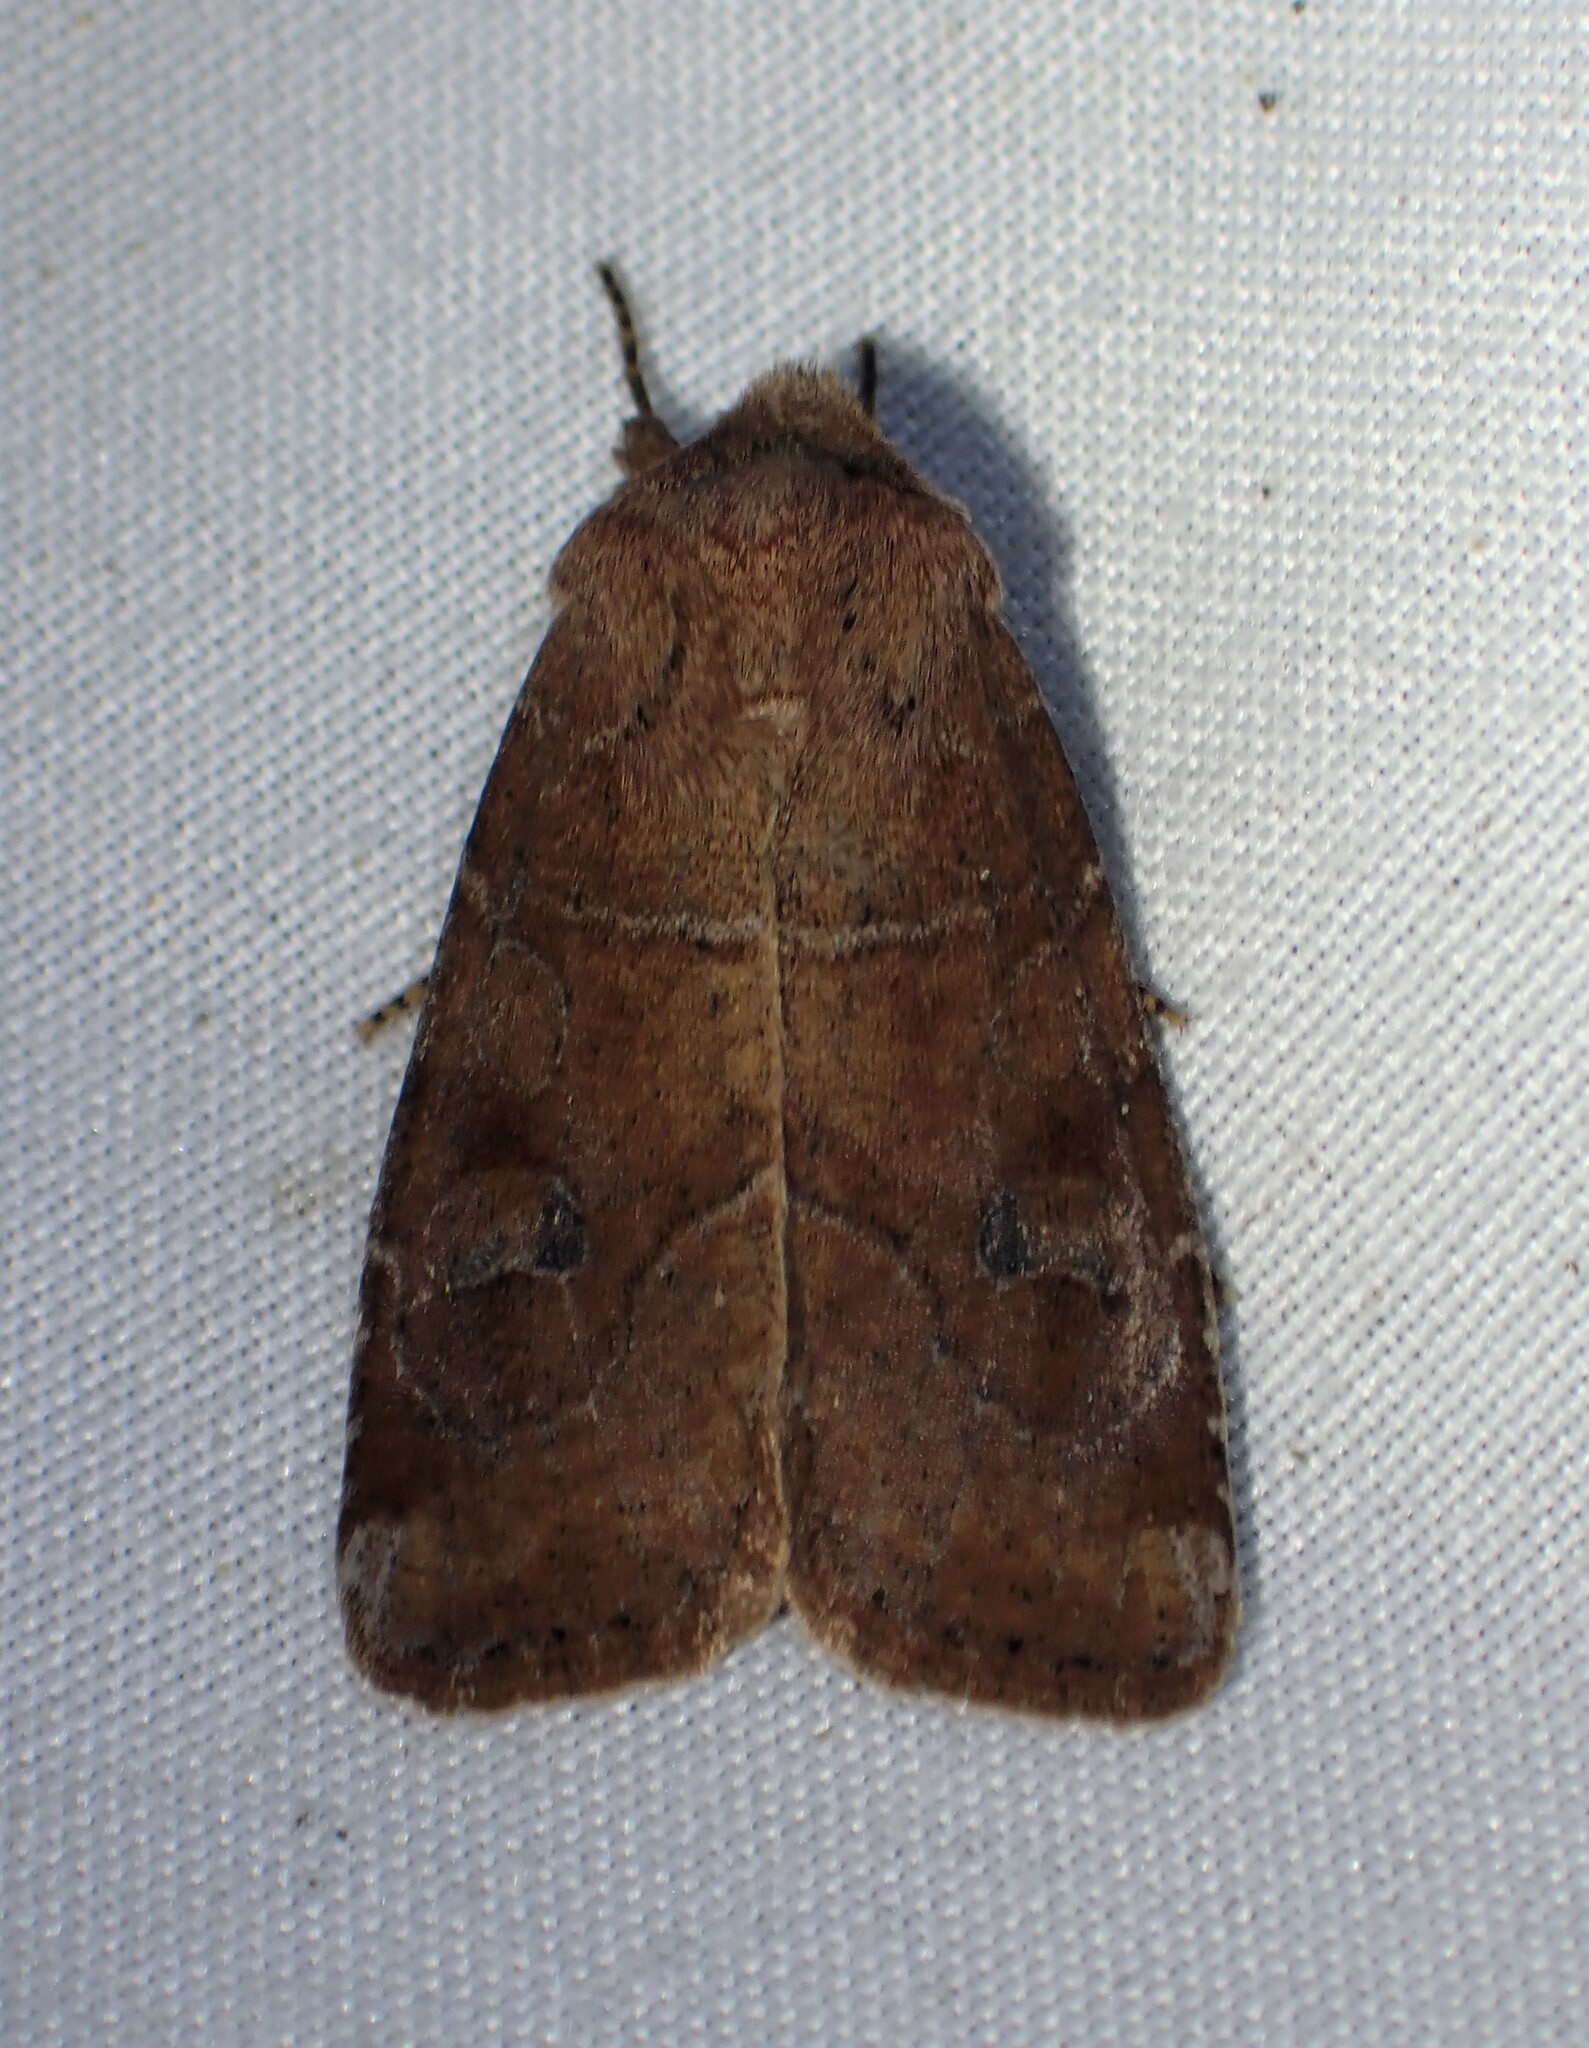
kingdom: Animalia
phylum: Arthropoda
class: Insecta
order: Lepidoptera
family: Noctuidae
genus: Crocigrapha
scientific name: Crocigrapha normani
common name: Norman's quaker
